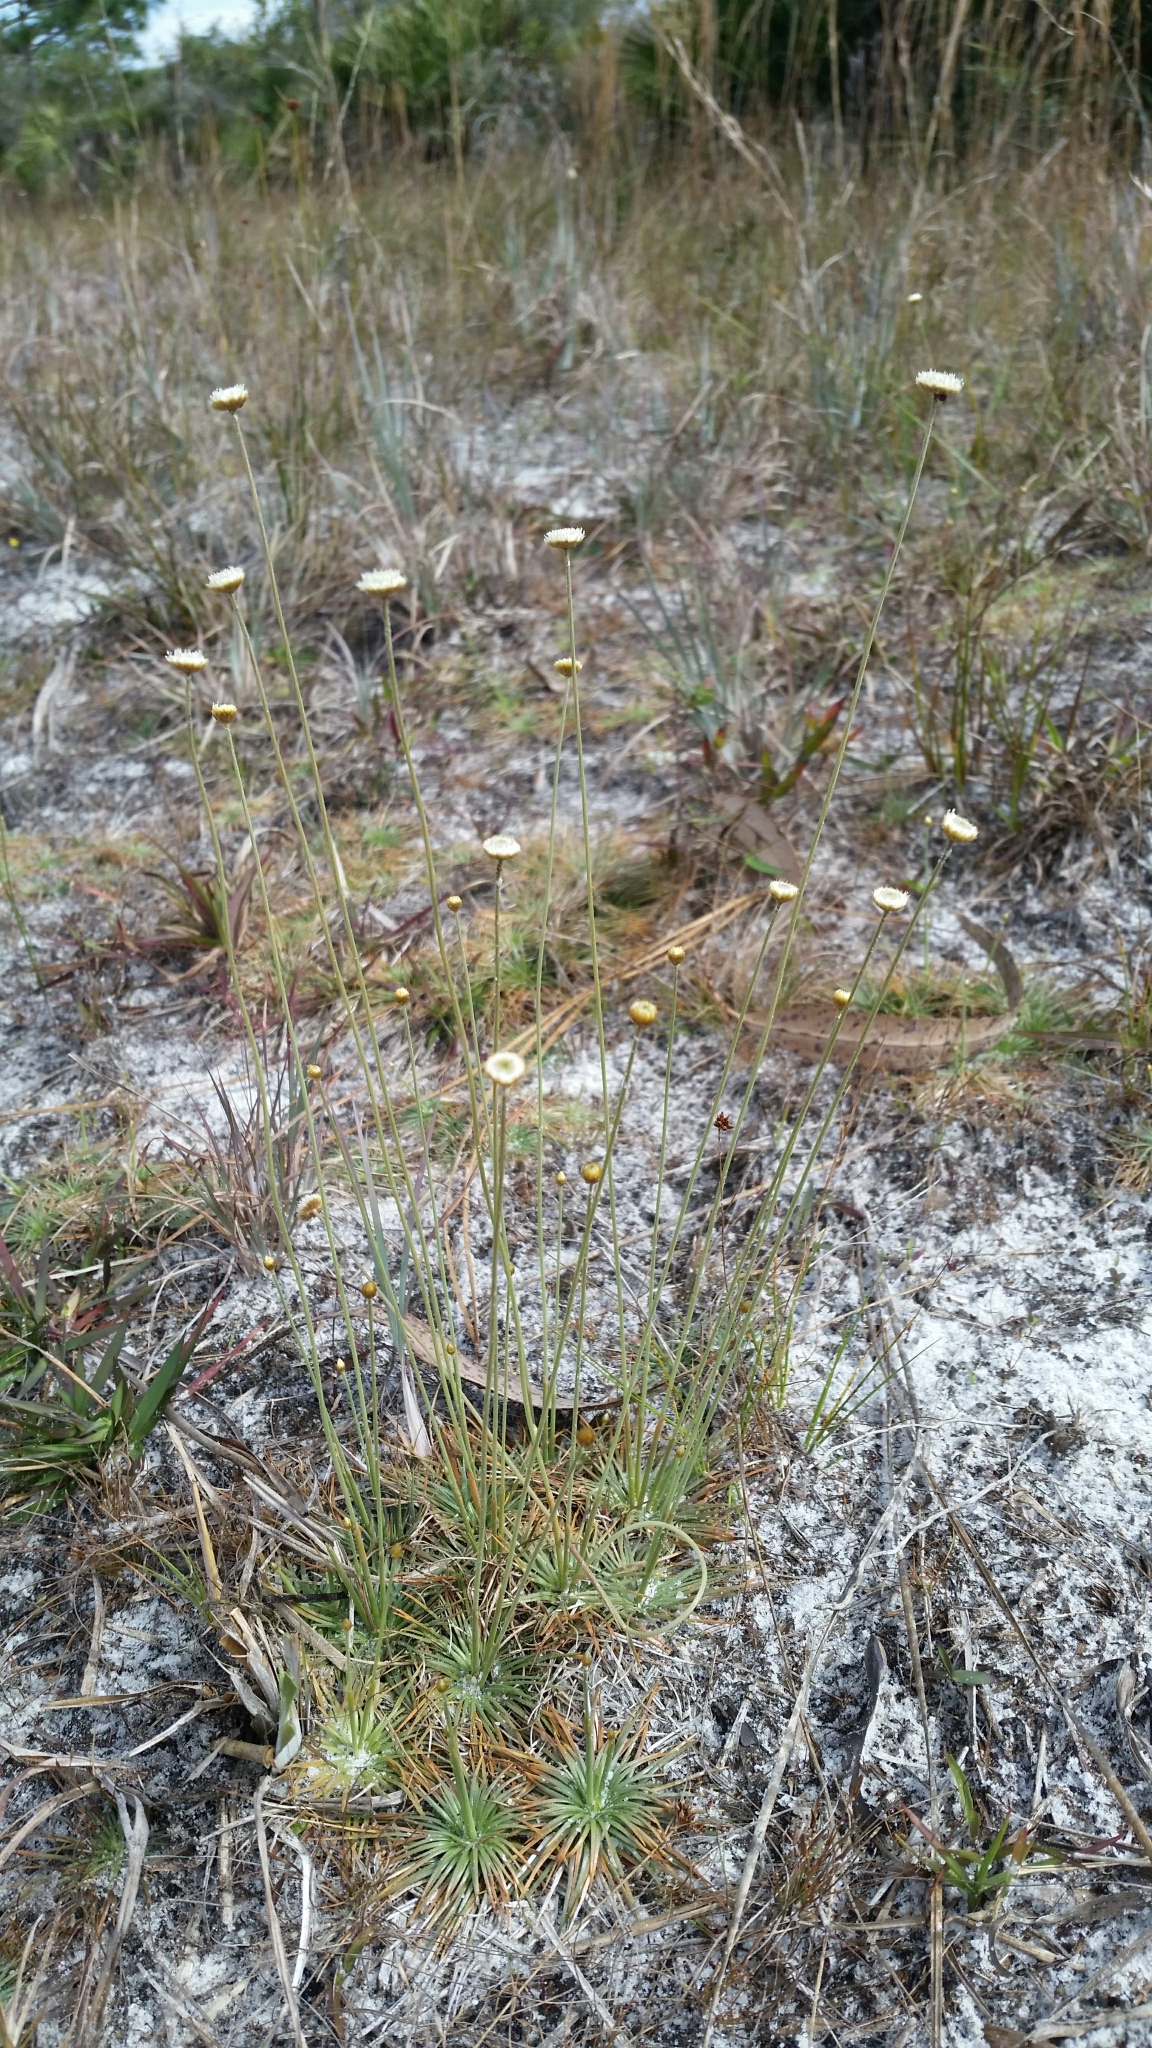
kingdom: Plantae
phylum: Tracheophyta
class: Liliopsida
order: Poales
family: Eriocaulaceae
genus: Syngonanthus
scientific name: Syngonanthus flavidulus
